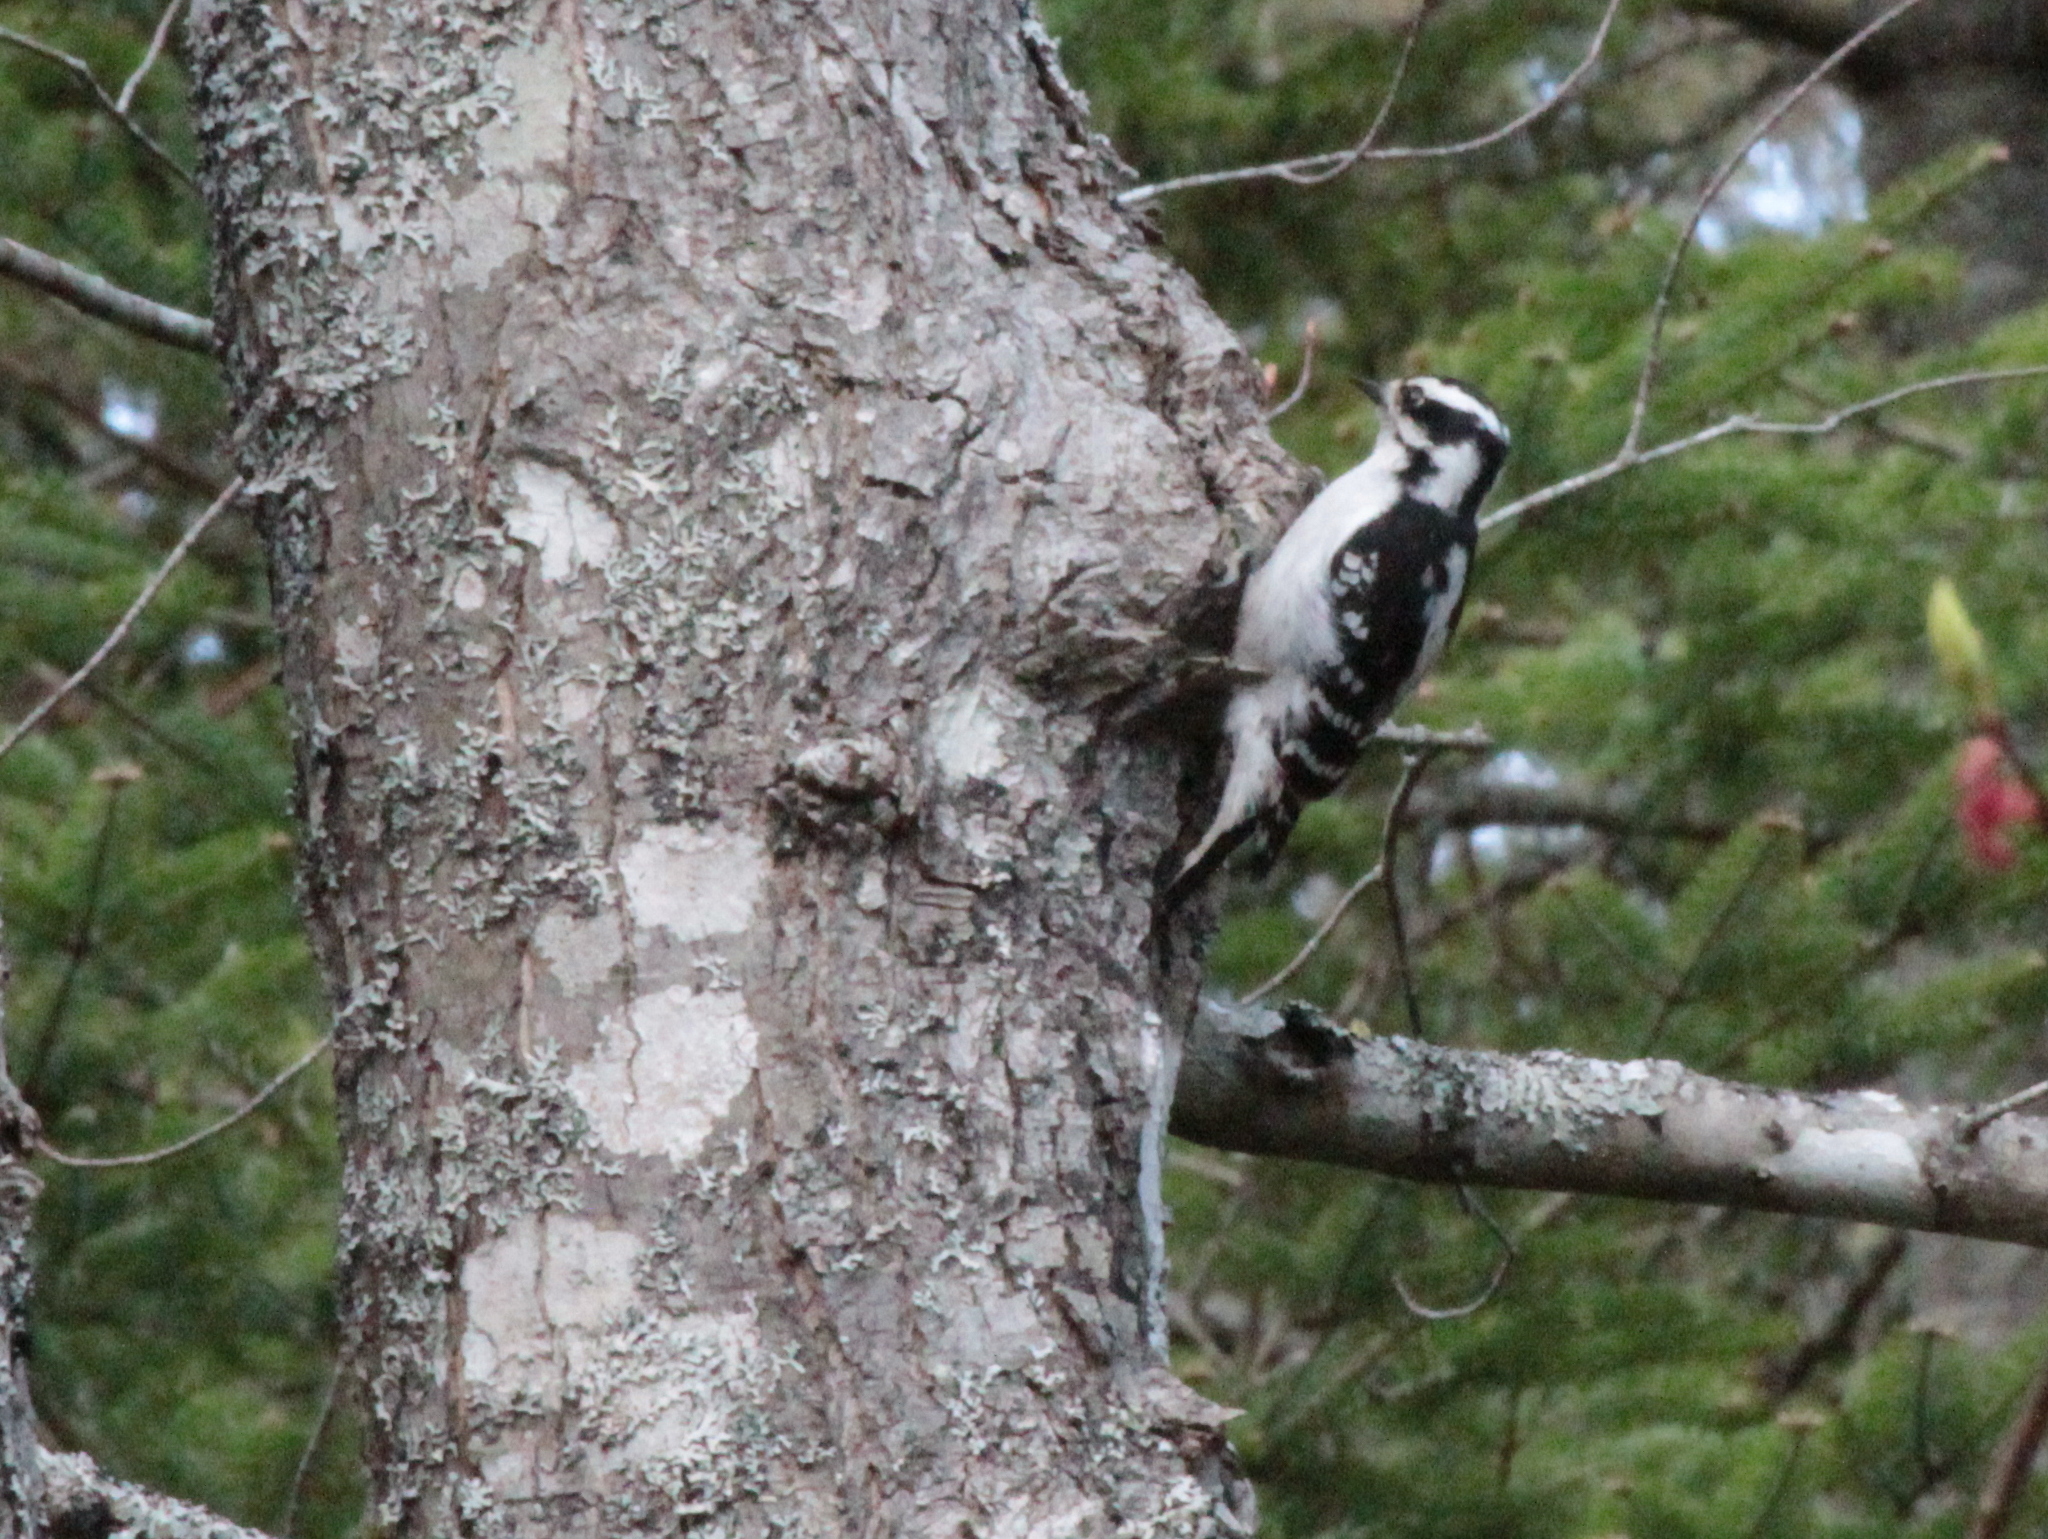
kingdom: Animalia
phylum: Chordata
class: Aves
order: Piciformes
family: Picidae
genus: Dryobates
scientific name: Dryobates pubescens
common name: Downy woodpecker
